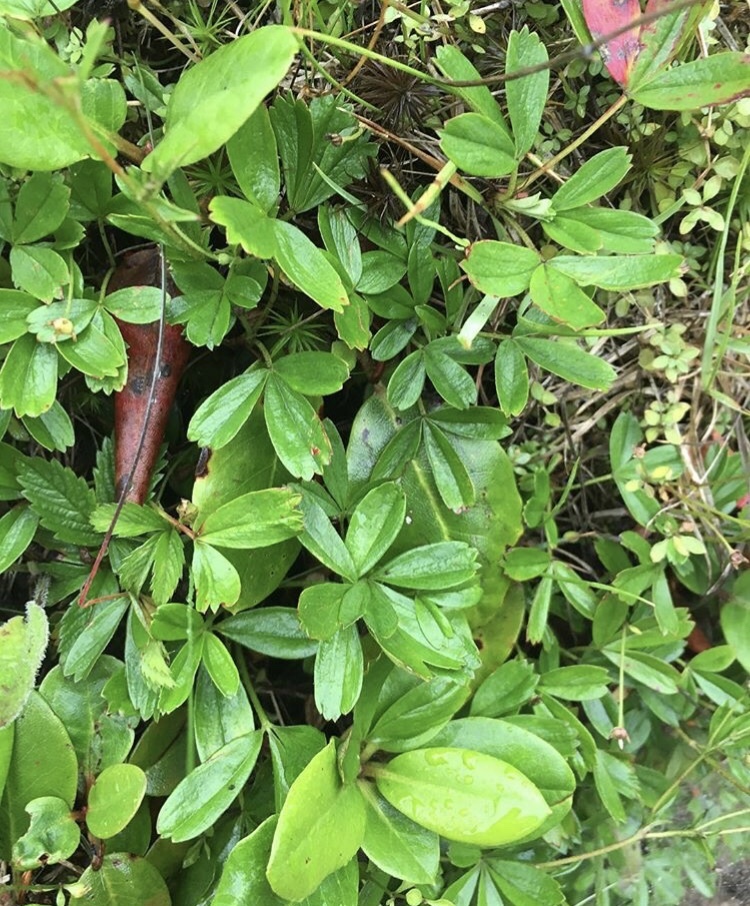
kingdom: Plantae
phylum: Tracheophyta
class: Magnoliopsida
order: Rosales
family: Rosaceae
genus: Sibbaldia
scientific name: Sibbaldia tridentata
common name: Three-toothed cinquefoil
